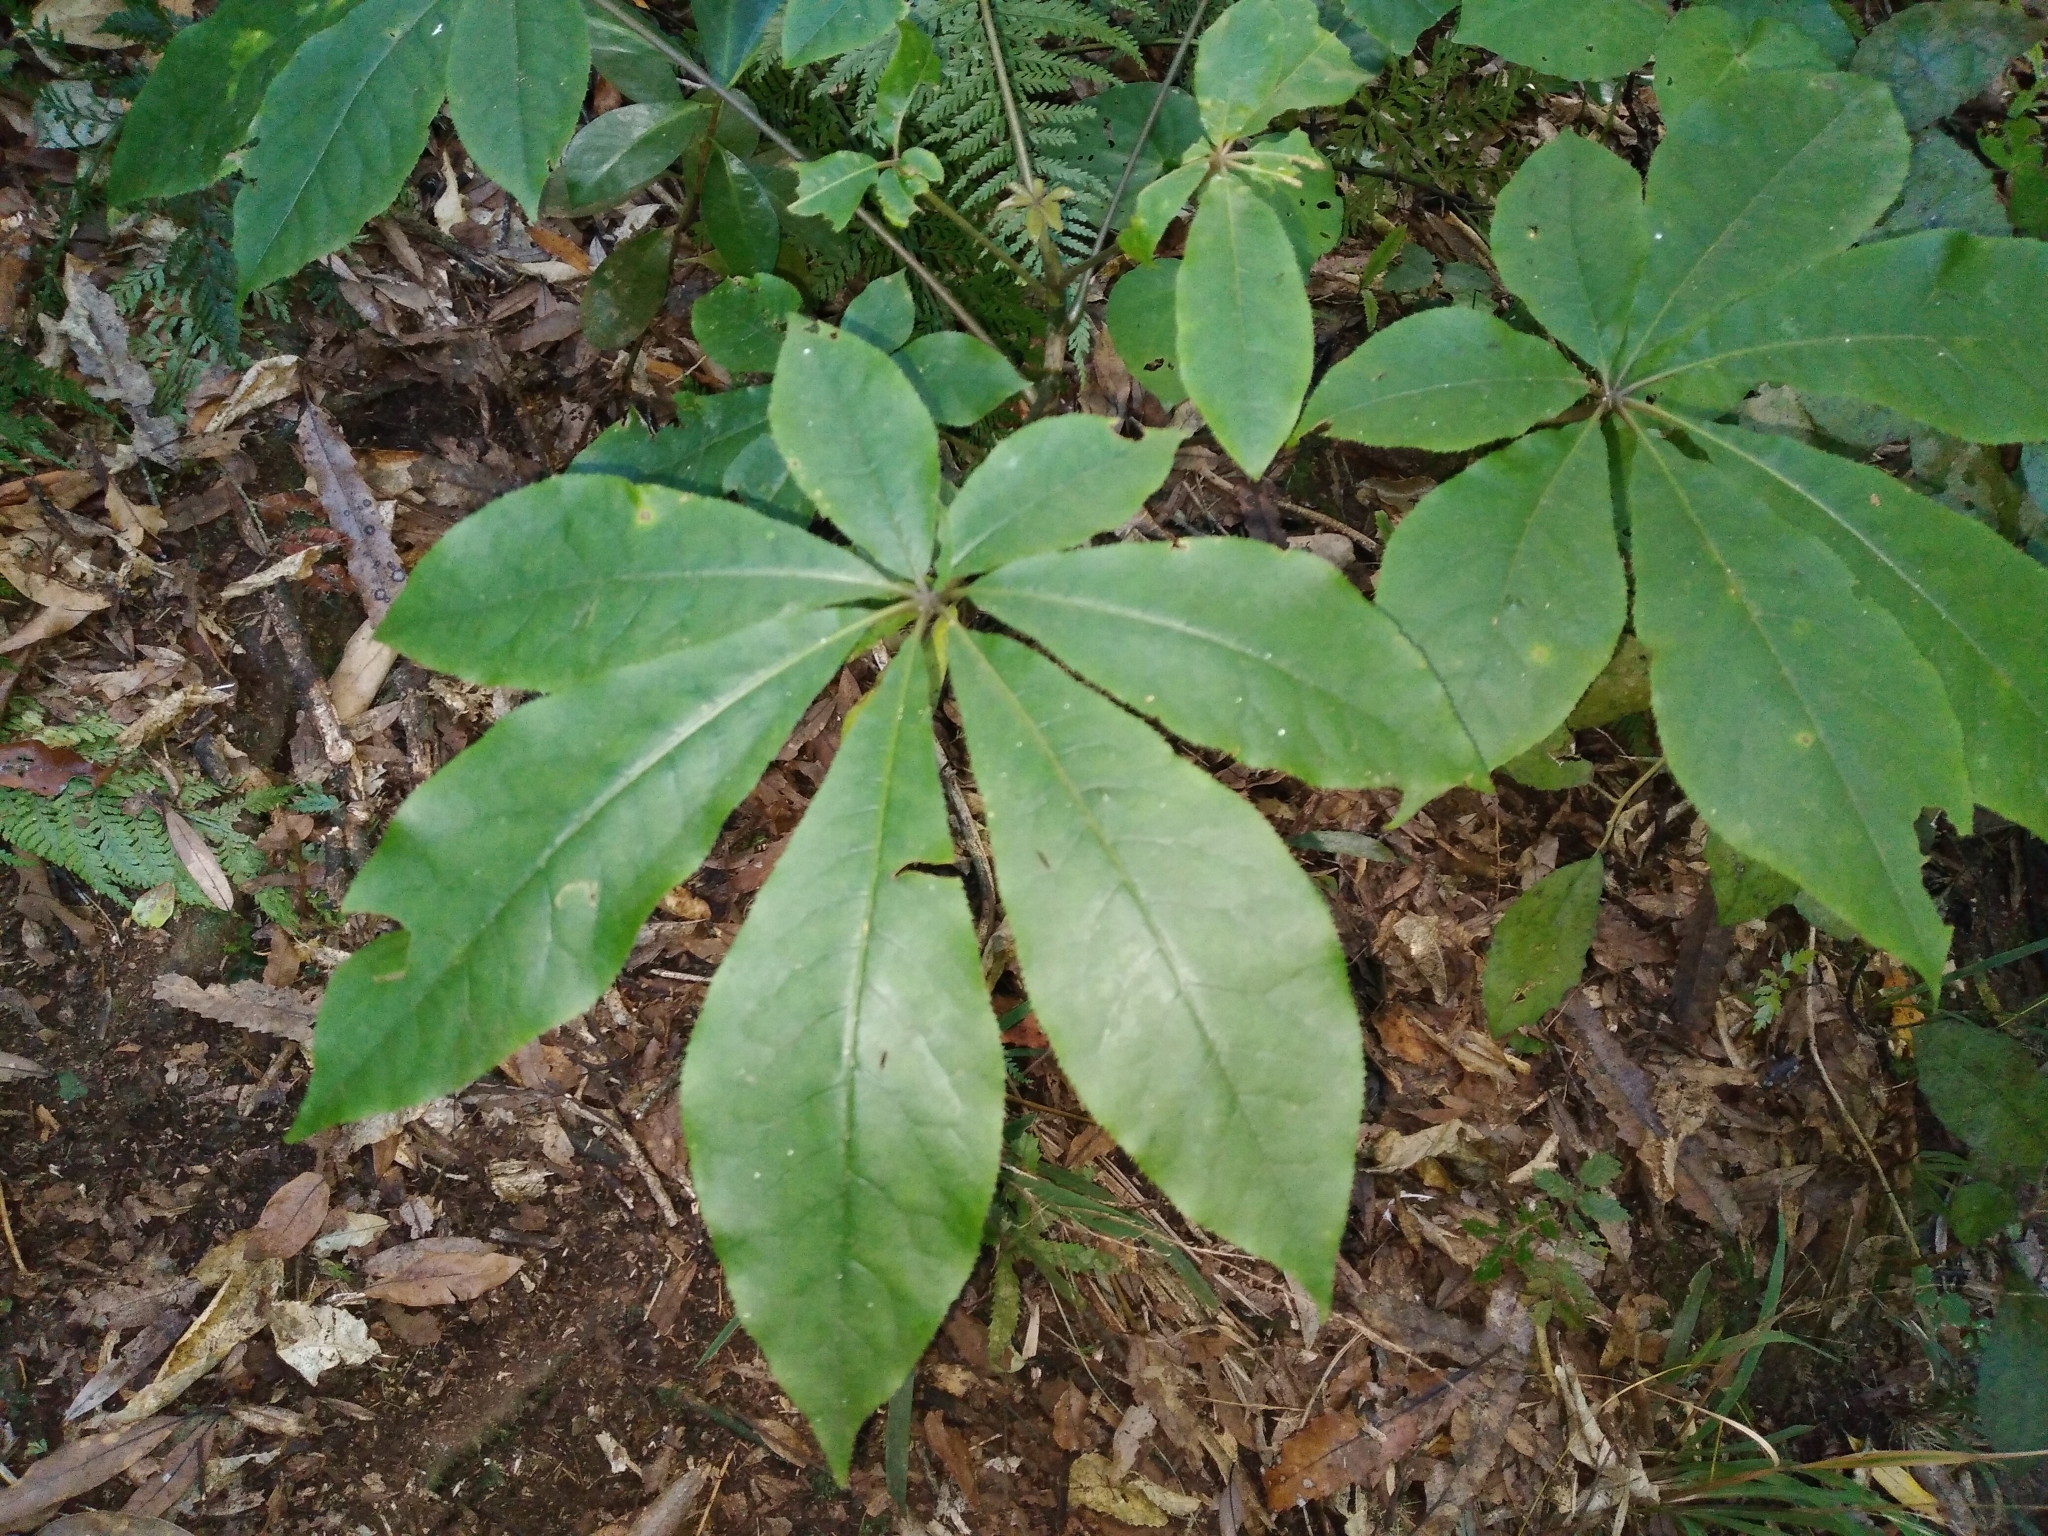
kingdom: Plantae
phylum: Tracheophyta
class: Magnoliopsida
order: Apiales
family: Araliaceae
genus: Schefflera
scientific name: Schefflera digitata
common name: Pate
